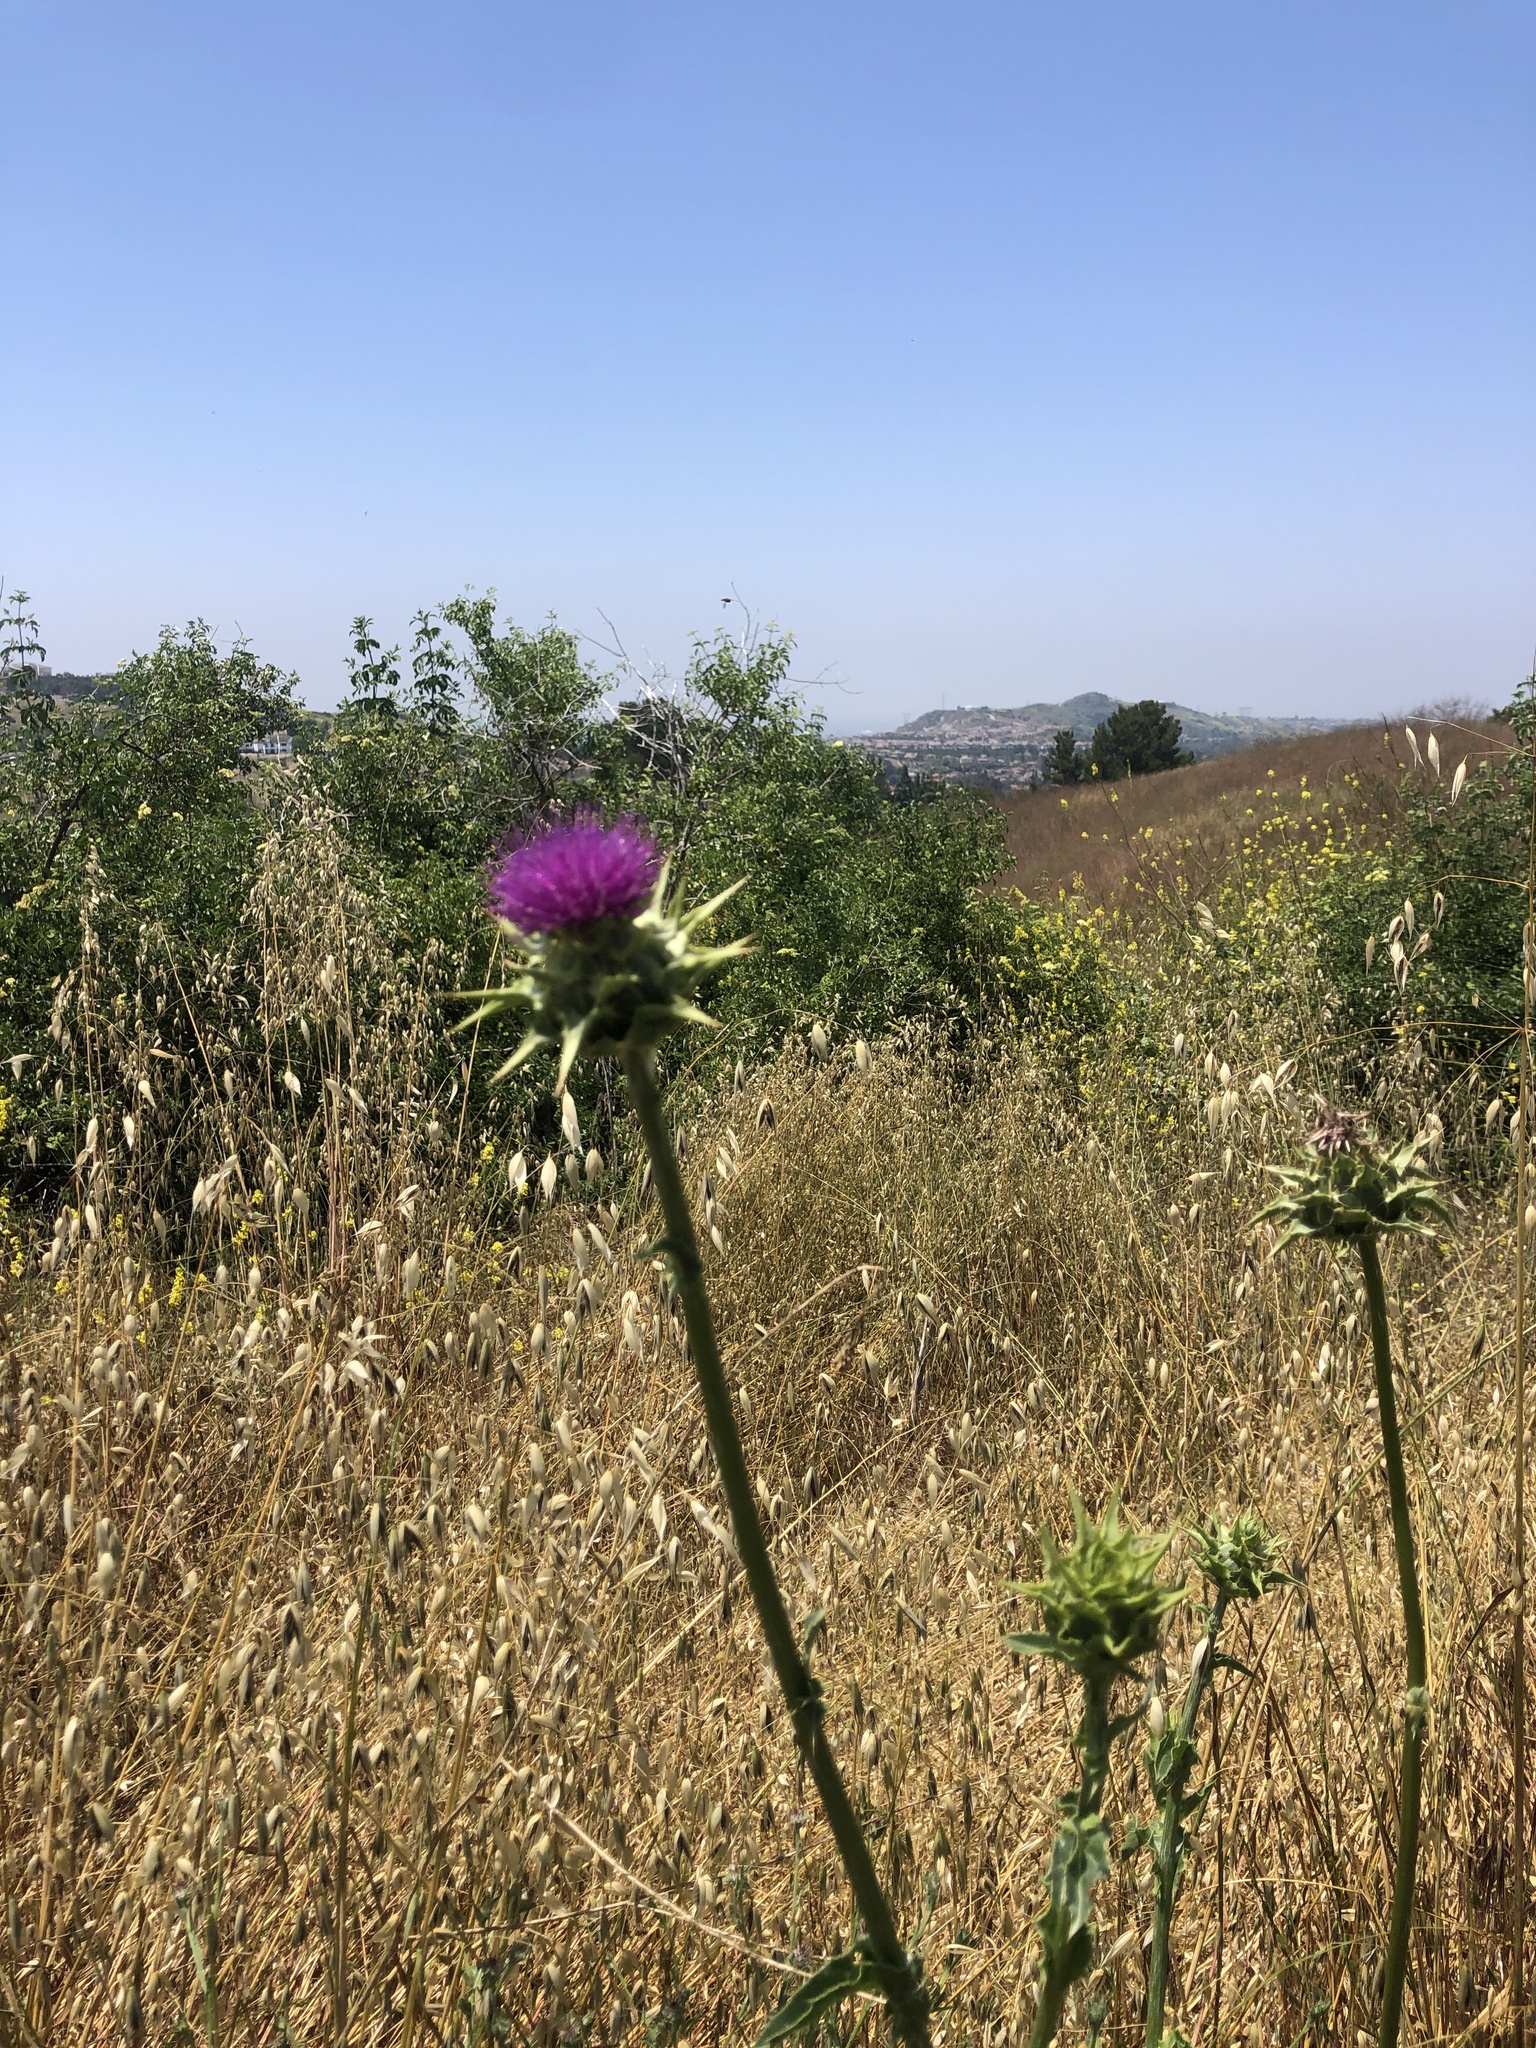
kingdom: Plantae
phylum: Tracheophyta
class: Magnoliopsida
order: Asterales
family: Asteraceae
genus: Silybum
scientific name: Silybum marianum
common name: Milk thistle
